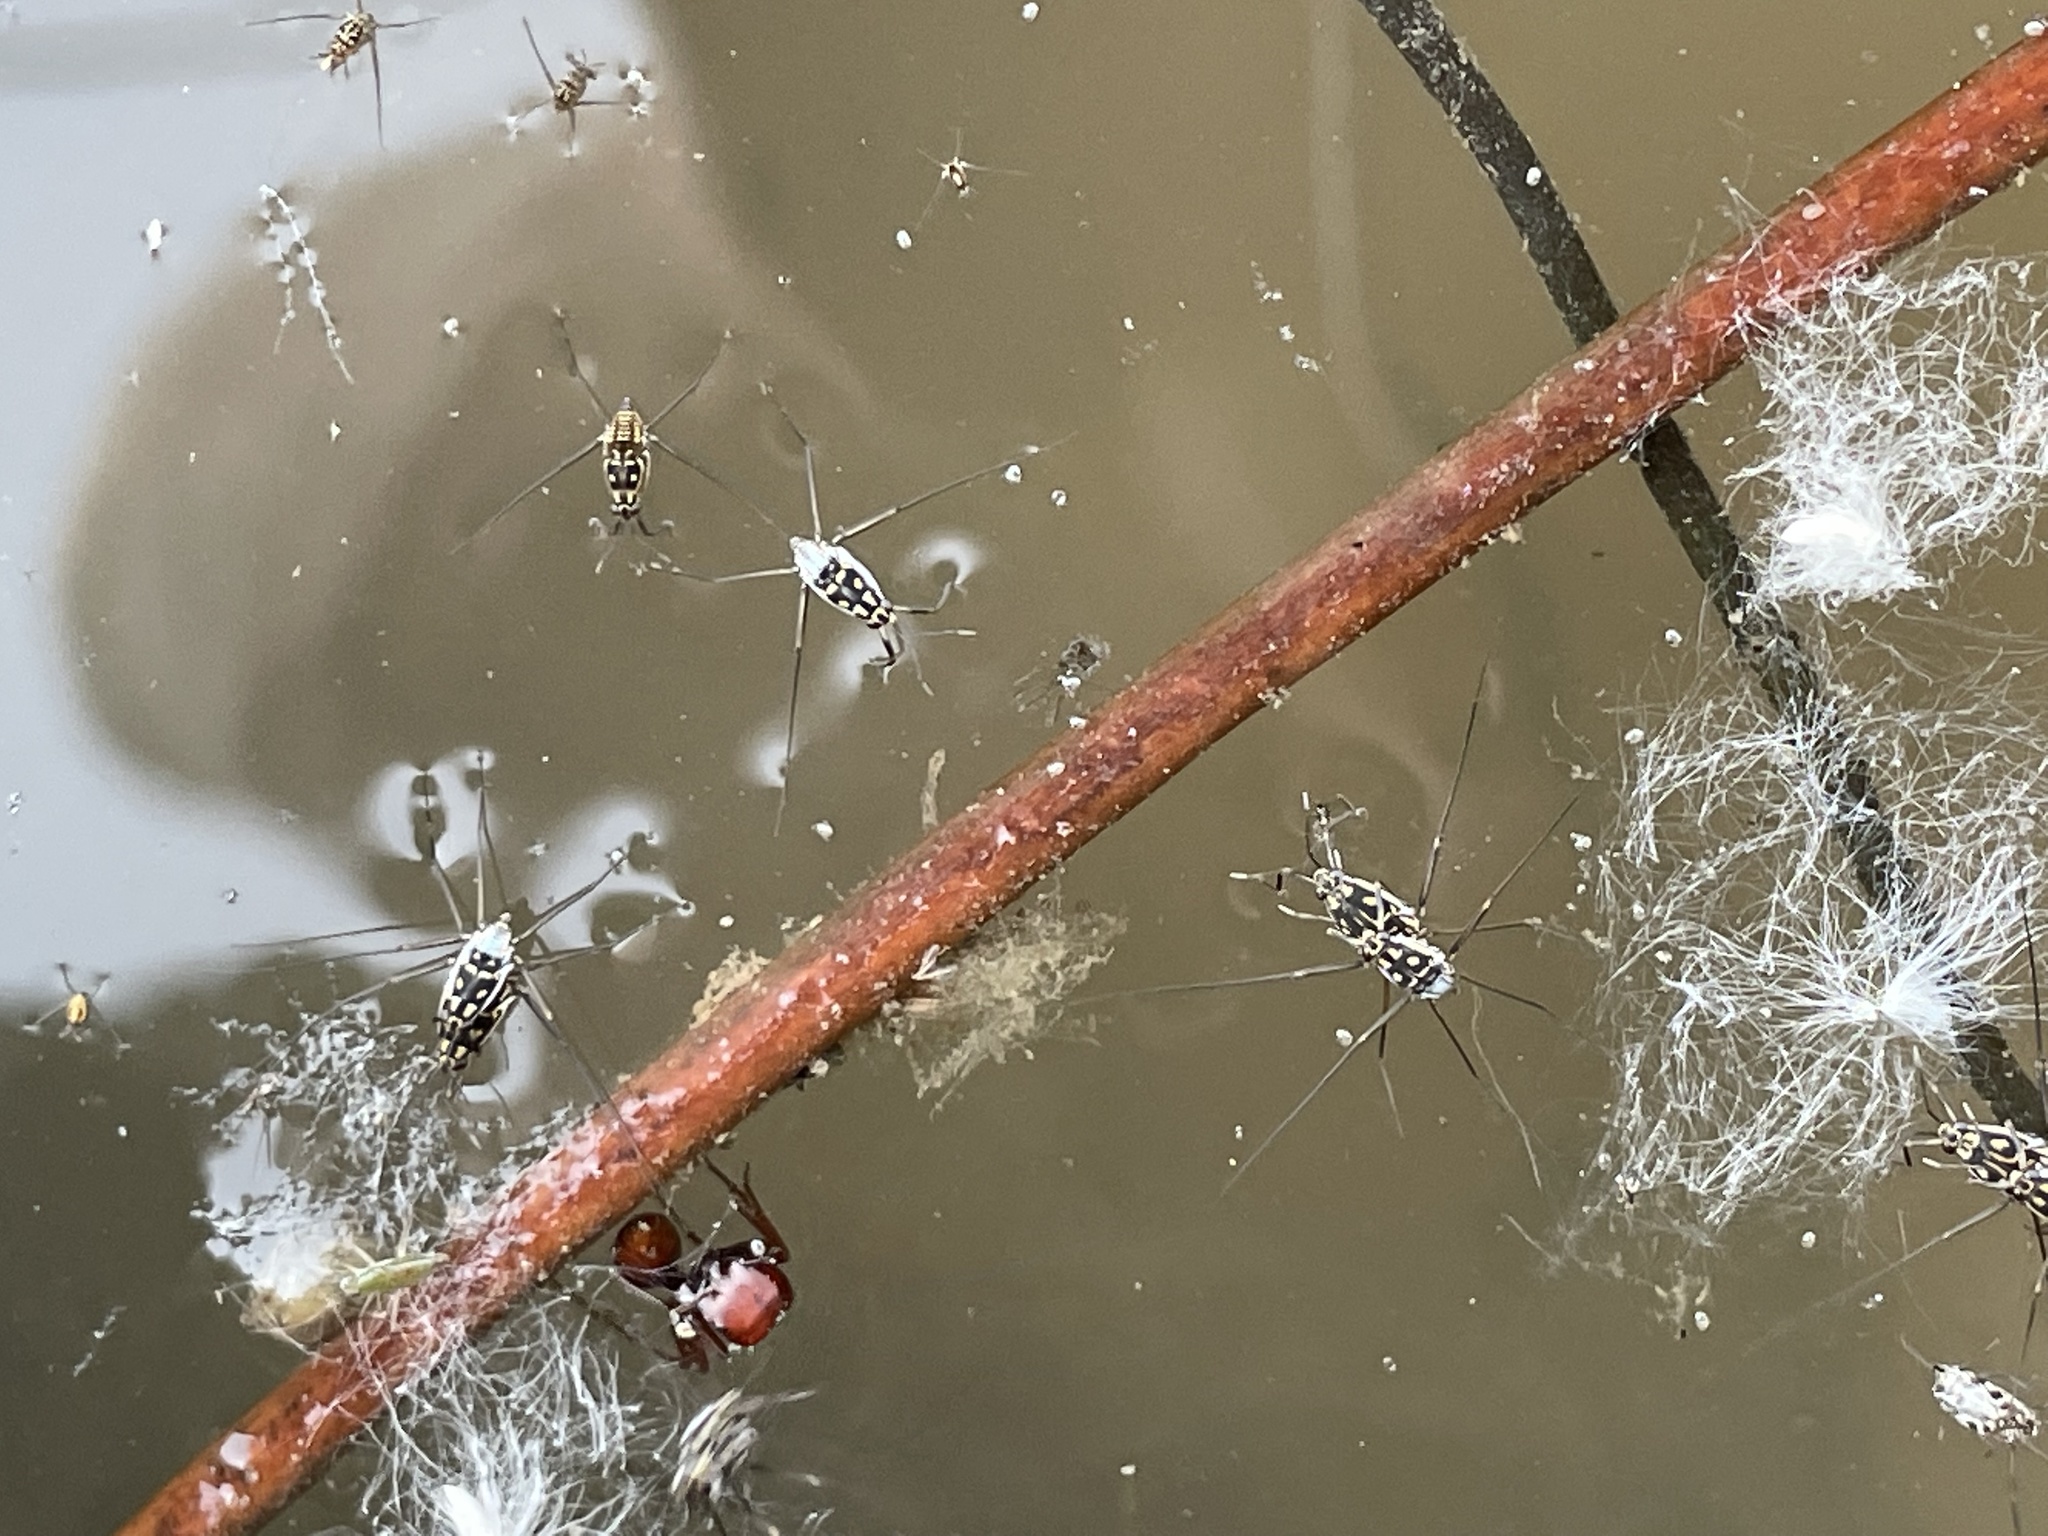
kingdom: Animalia
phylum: Arthropoda
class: Insecta
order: Hemiptera
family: Gerridae
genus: Trepobates
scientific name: Trepobates subnitidus
